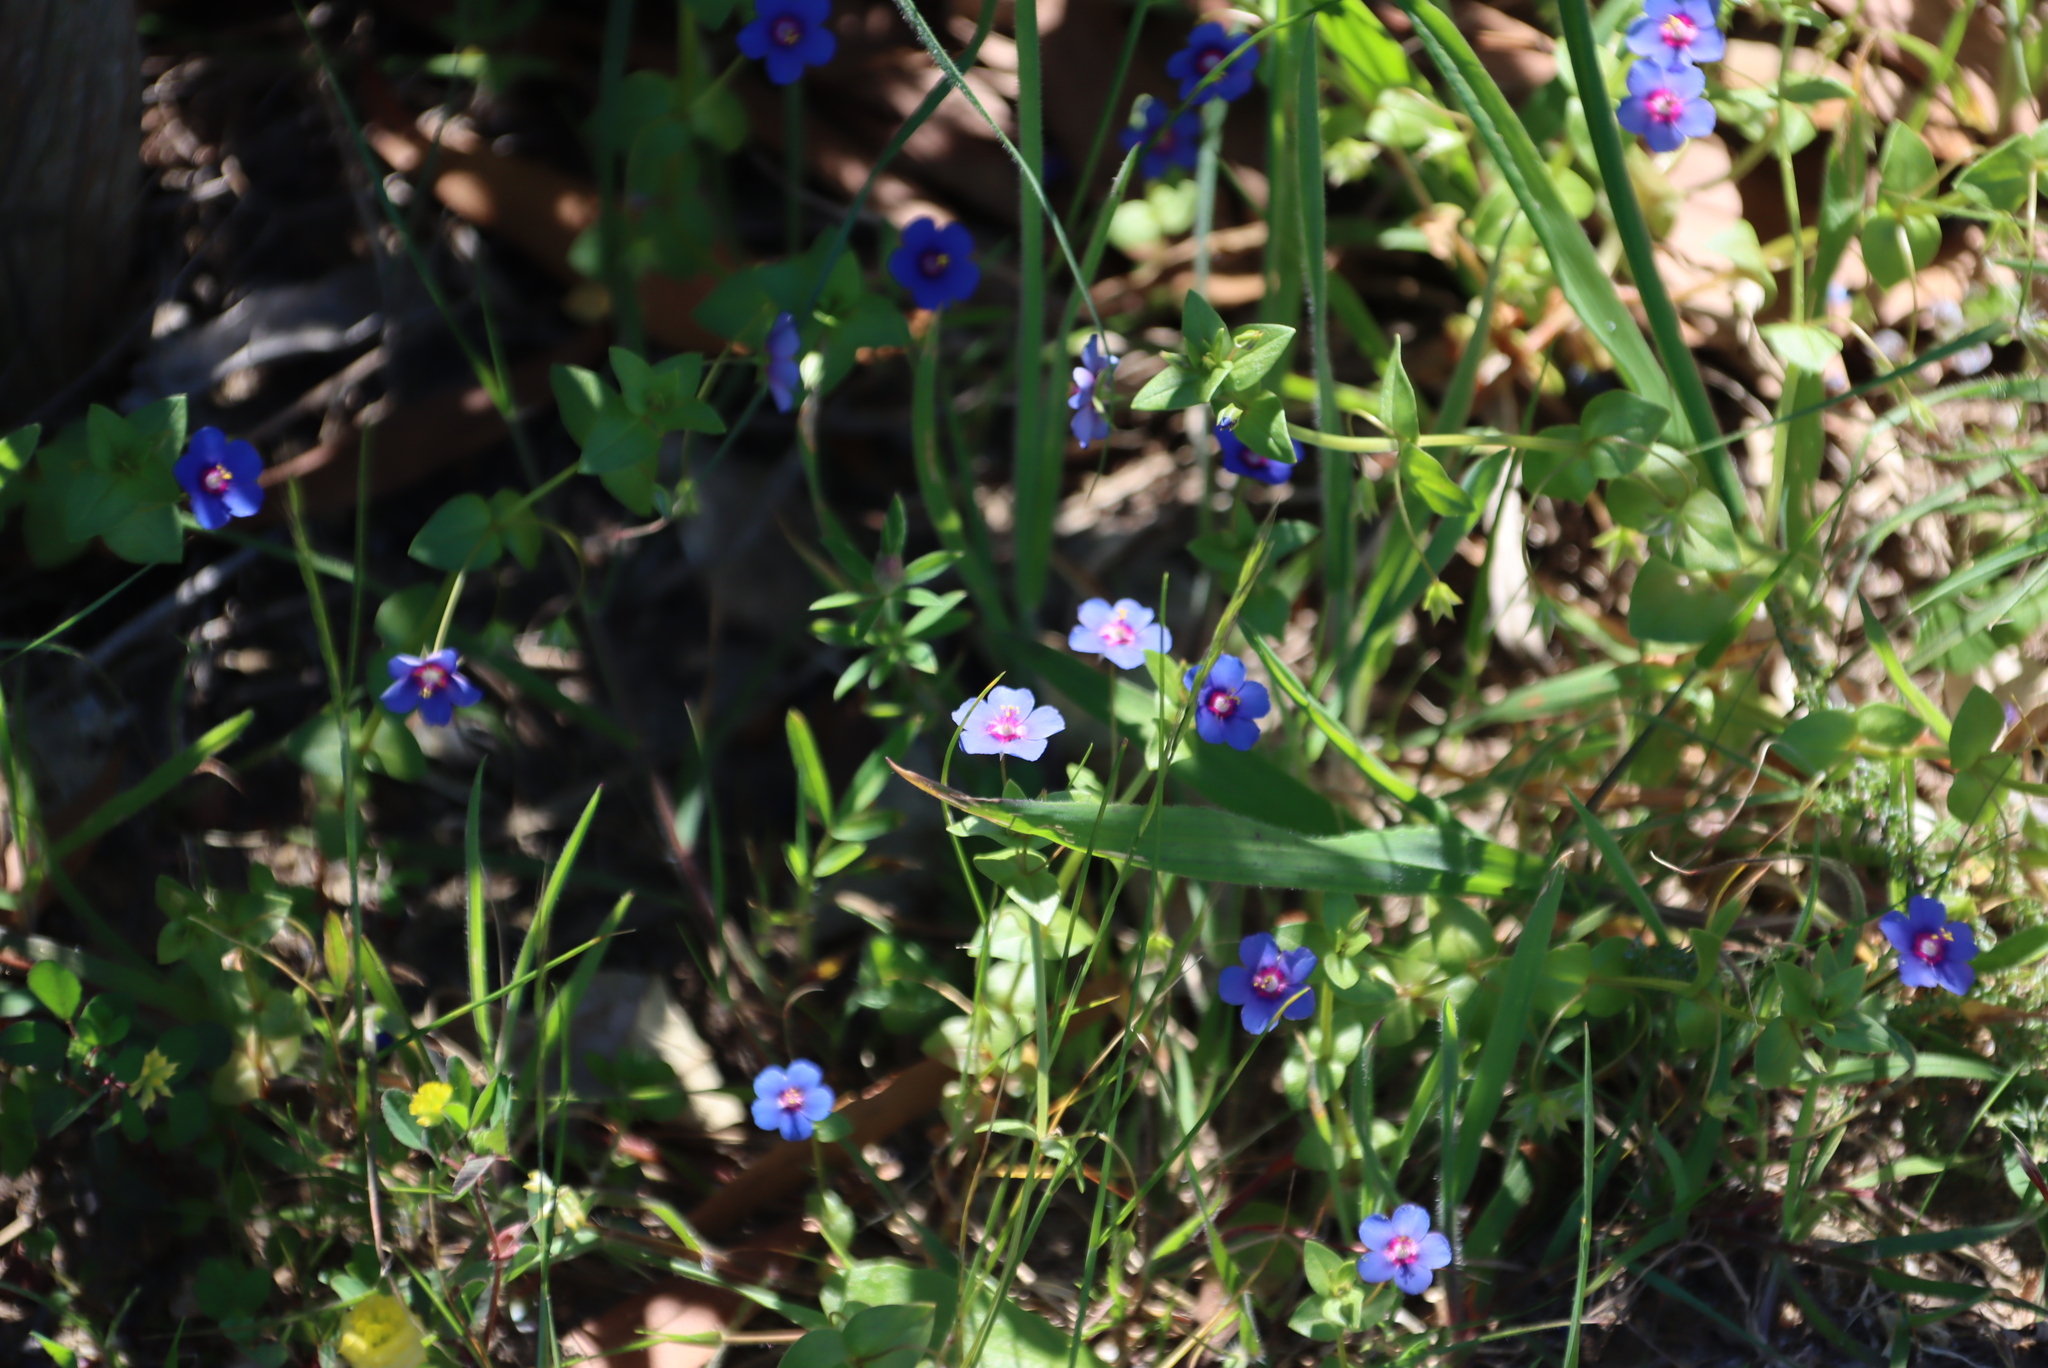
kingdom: Plantae
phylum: Tracheophyta
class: Magnoliopsida
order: Ericales
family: Primulaceae
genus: Lysimachia
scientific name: Lysimachia loeflingii
